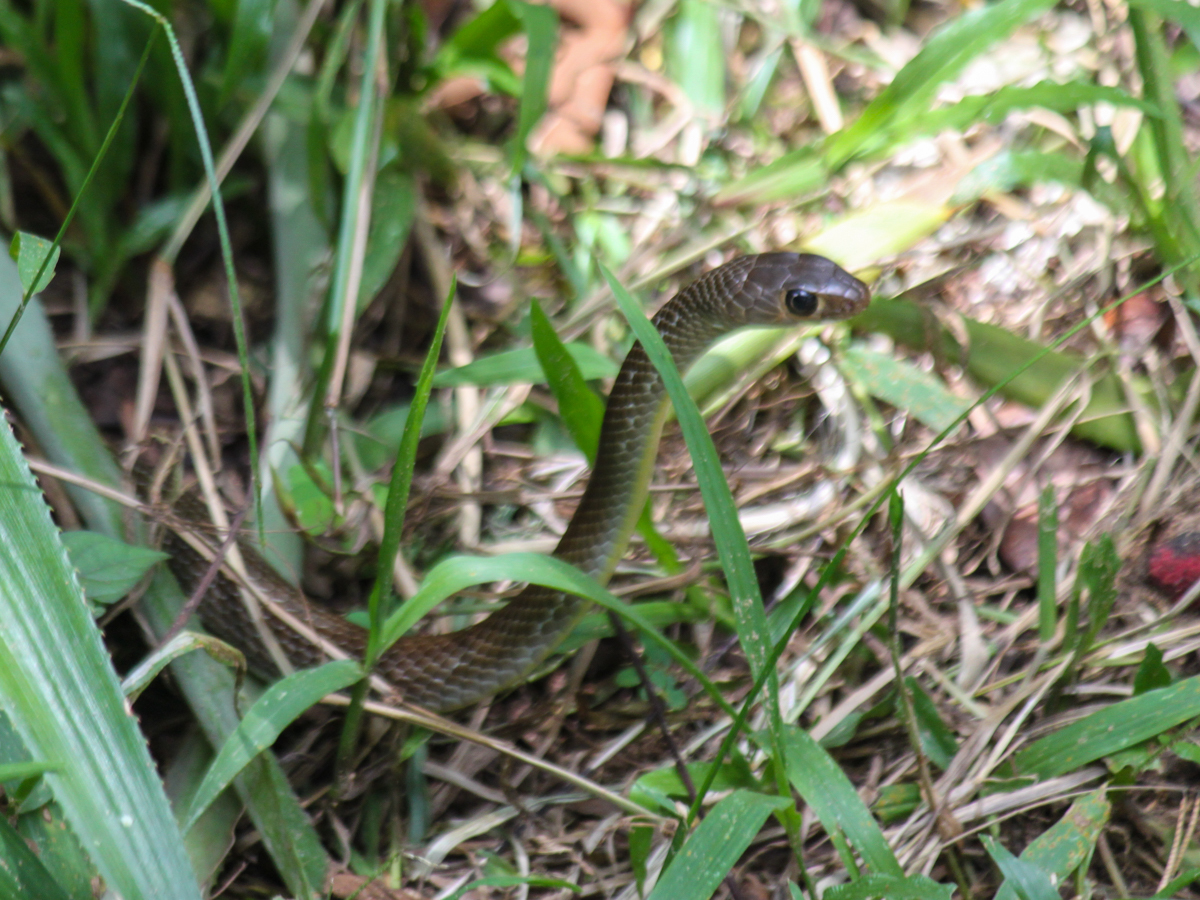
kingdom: Animalia
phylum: Chordata
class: Squamata
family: Colubridae
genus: Ptyas
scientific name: Ptyas korros
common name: Indo-chinese rat snake
